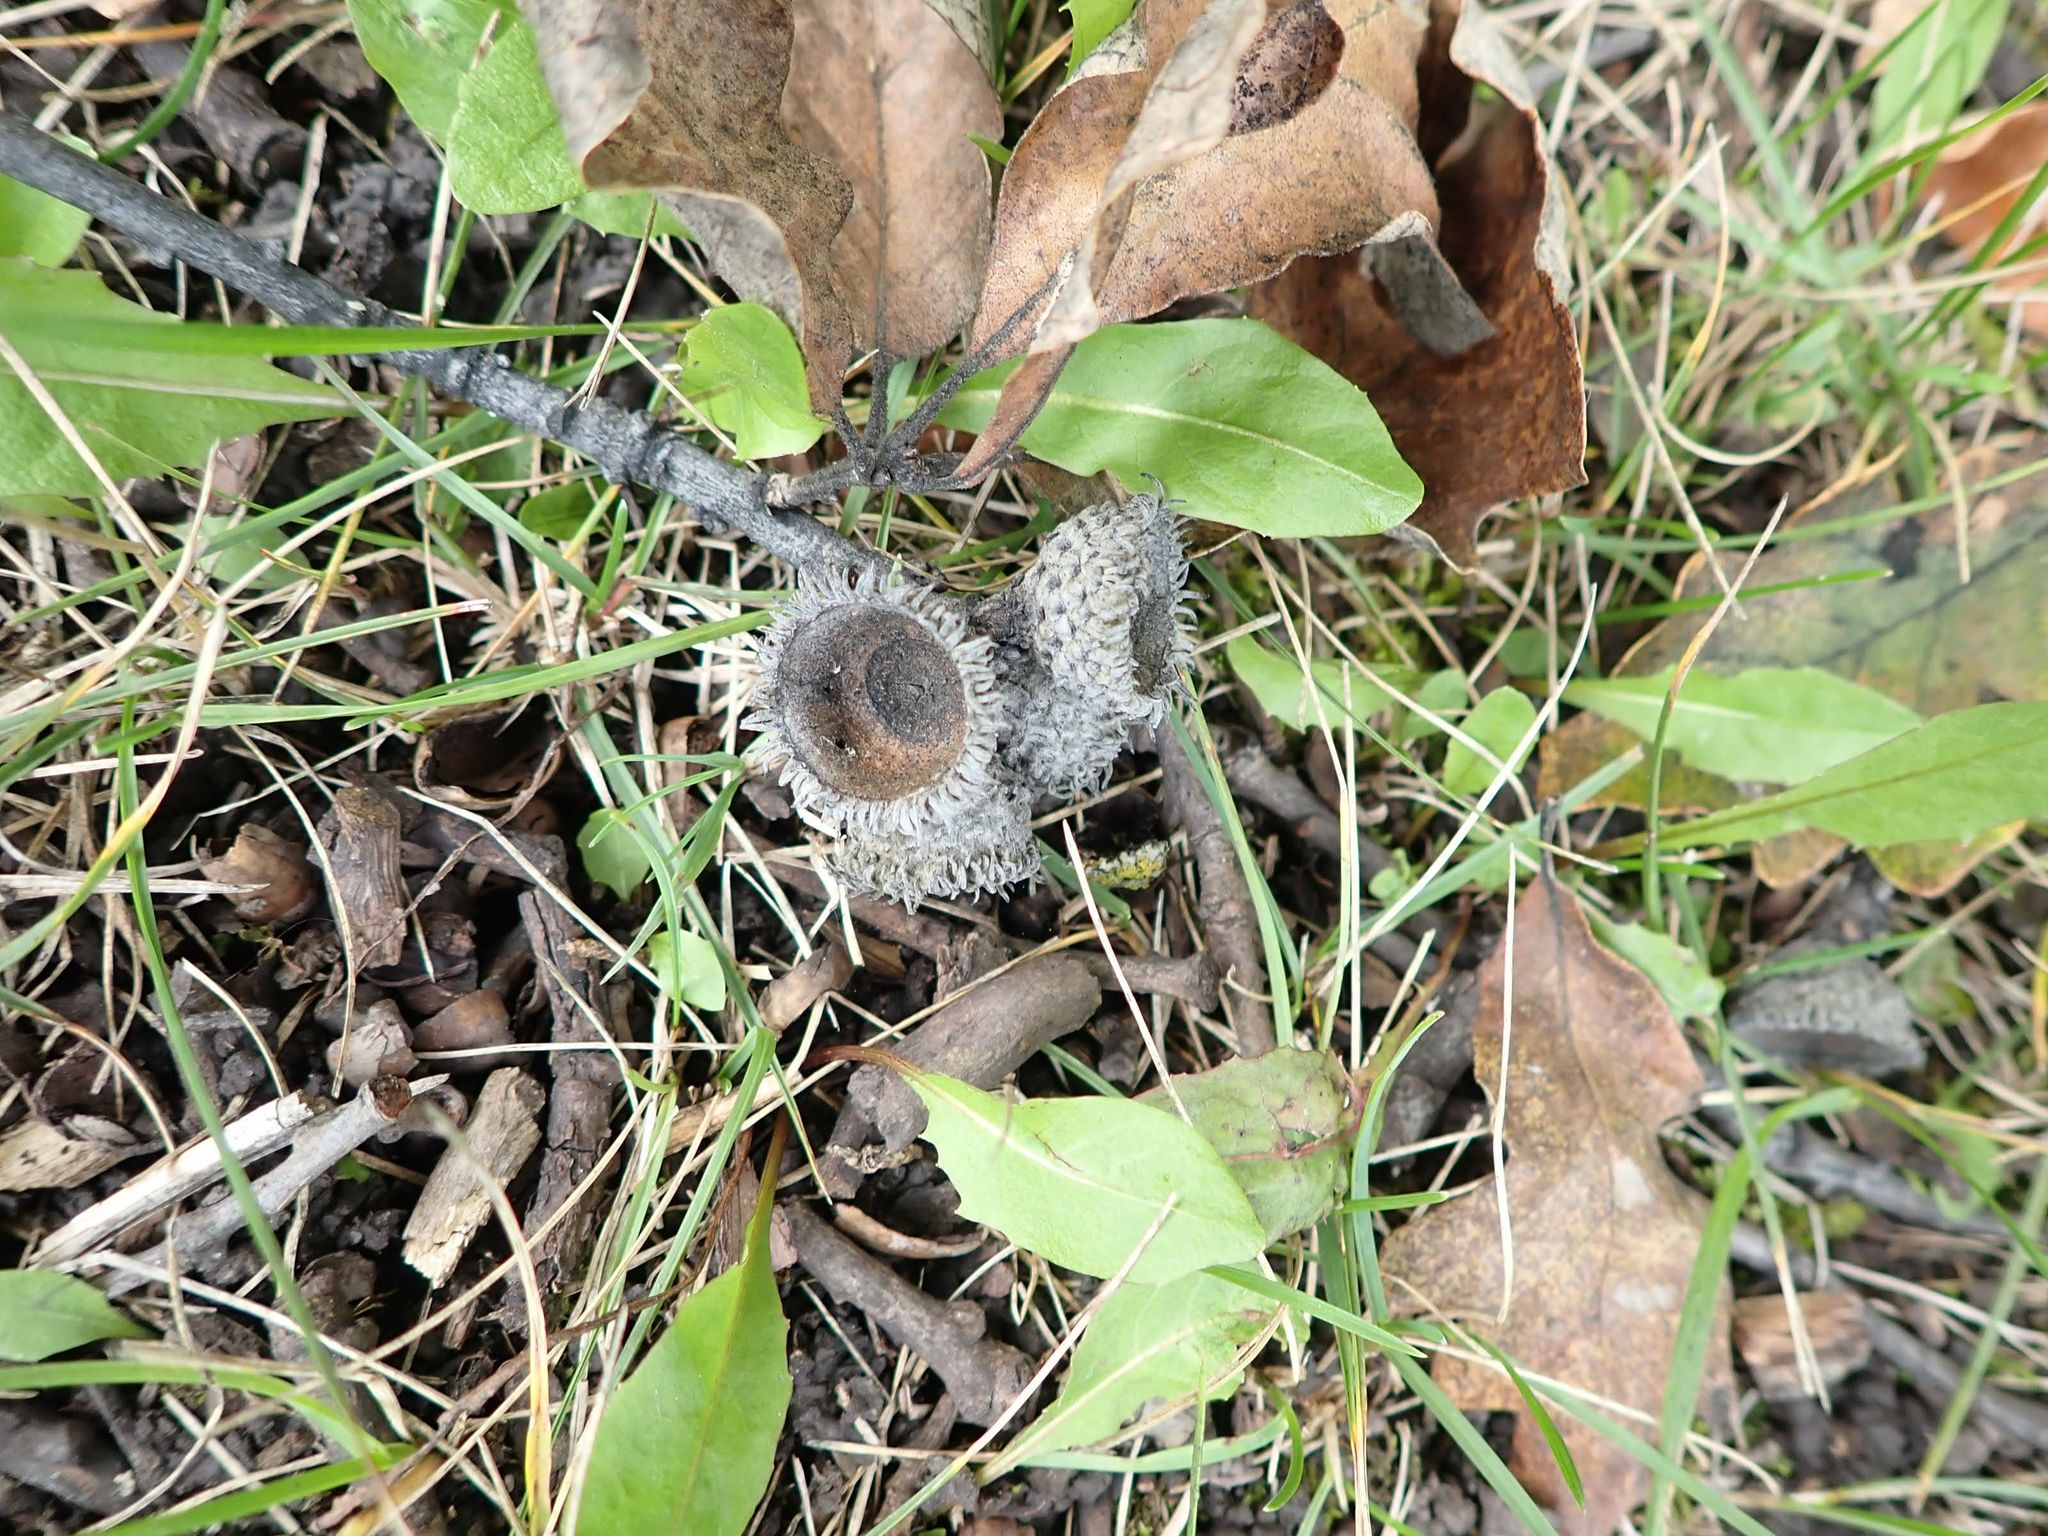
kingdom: Plantae
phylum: Tracheophyta
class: Magnoliopsida
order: Fagales
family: Fagaceae
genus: Quercus
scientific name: Quercus macrocarpa
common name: Bur oak
